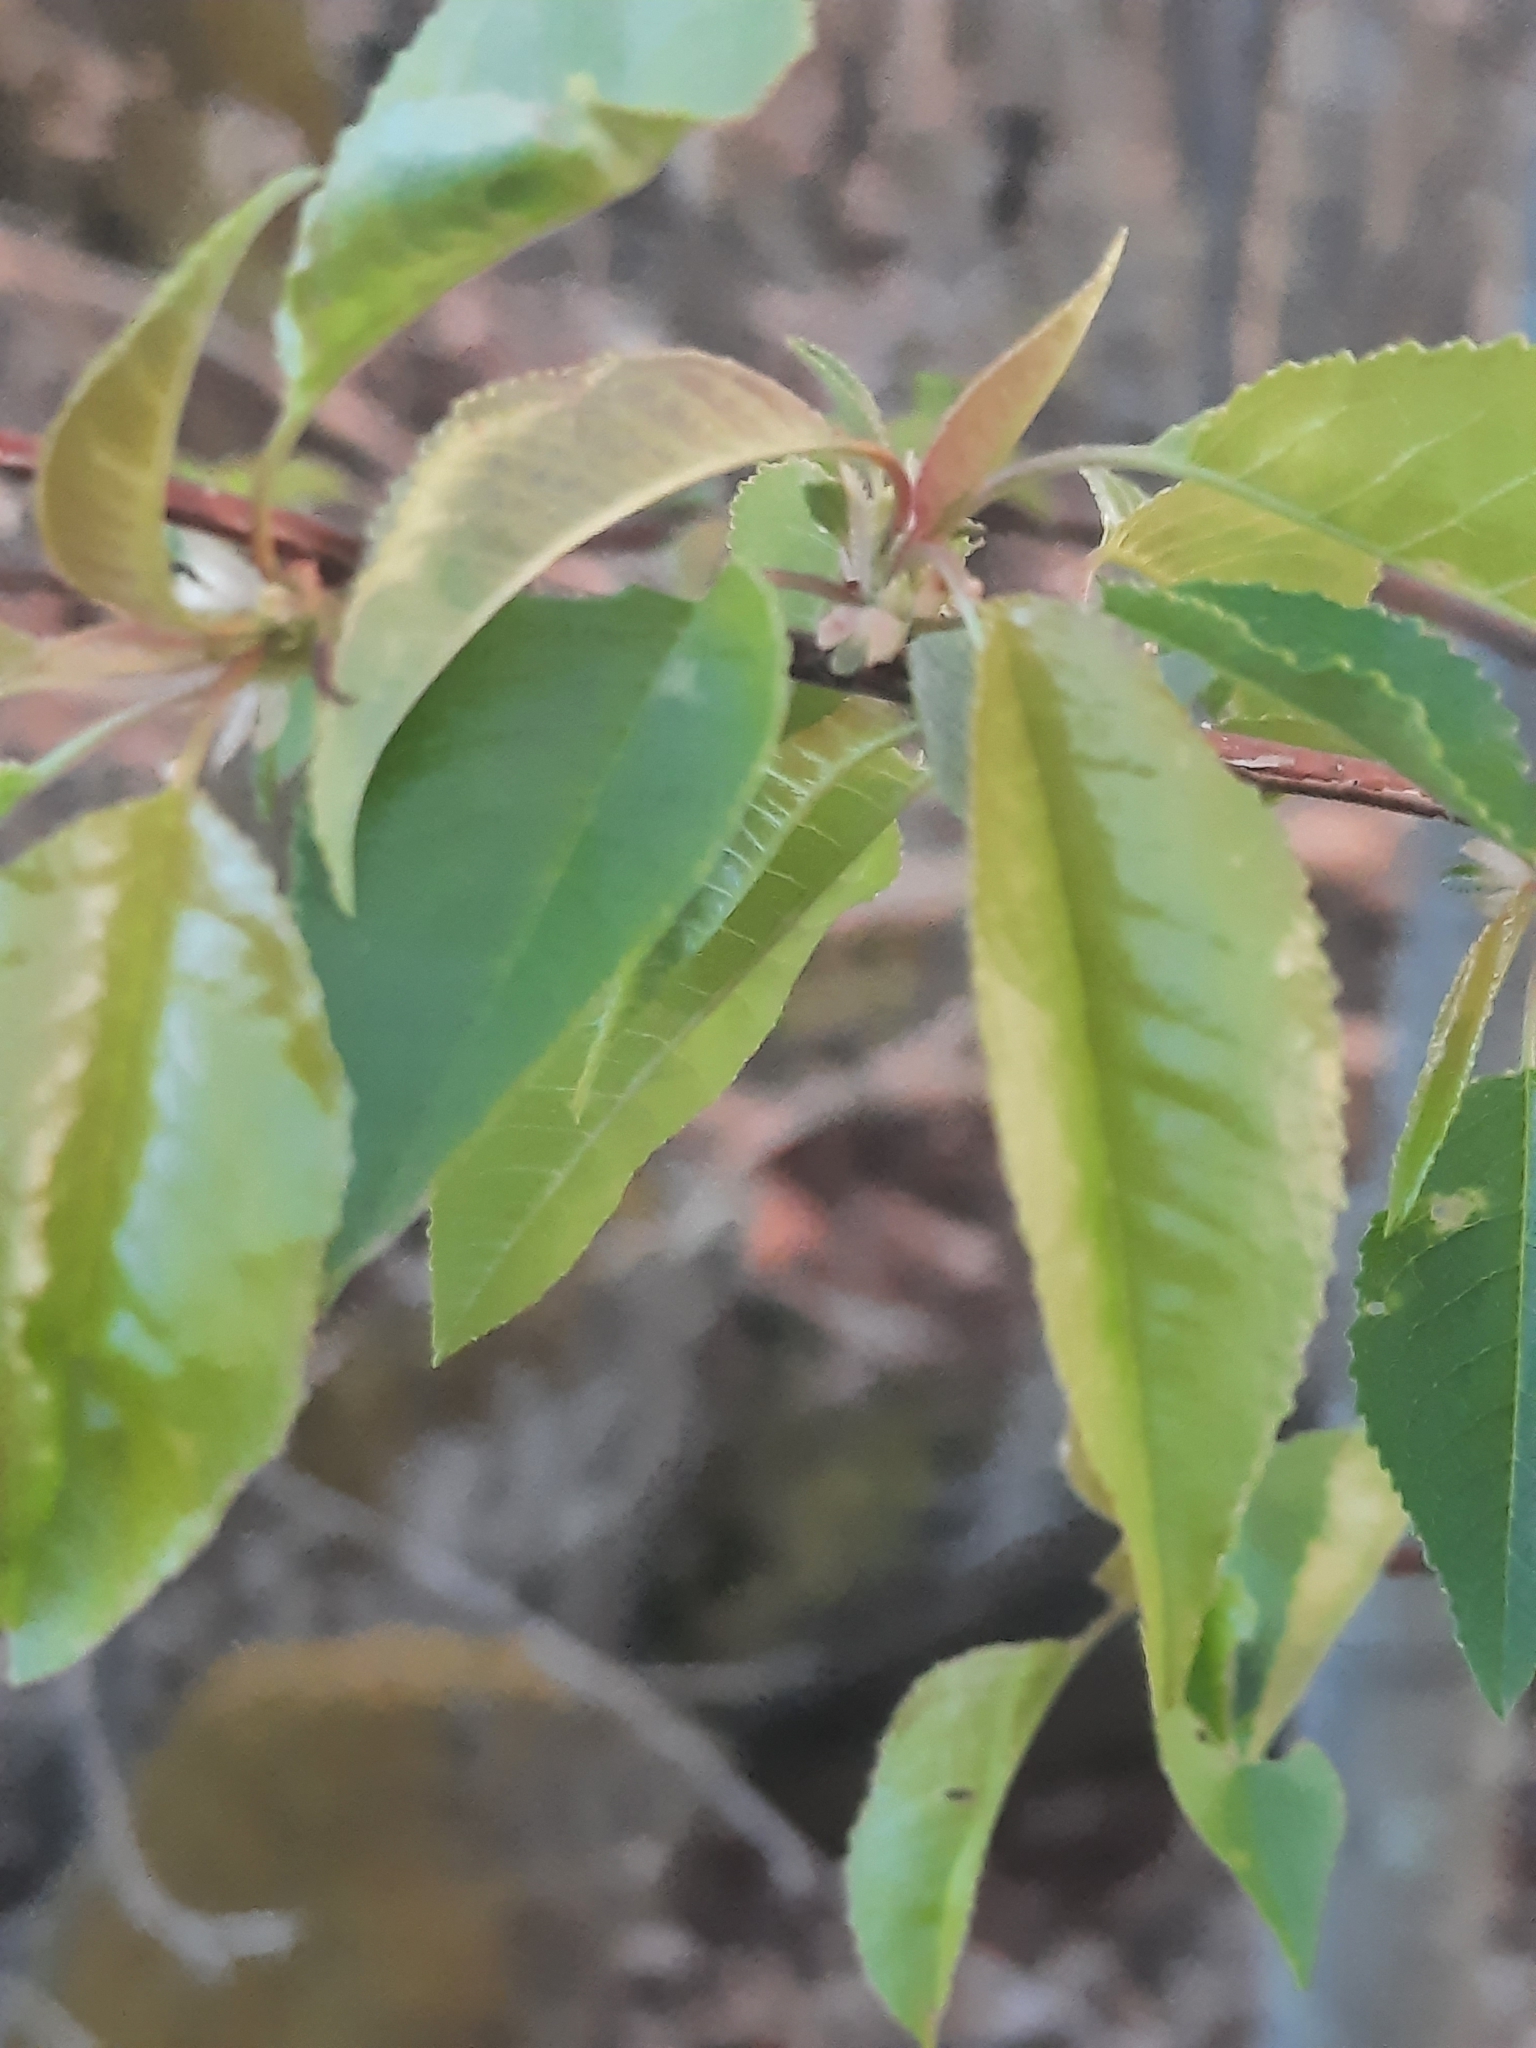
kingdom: Plantae
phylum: Tracheophyta
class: Magnoliopsida
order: Rosales
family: Rosaceae
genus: Prunus
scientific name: Prunus pensylvanica
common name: Pin cherry
